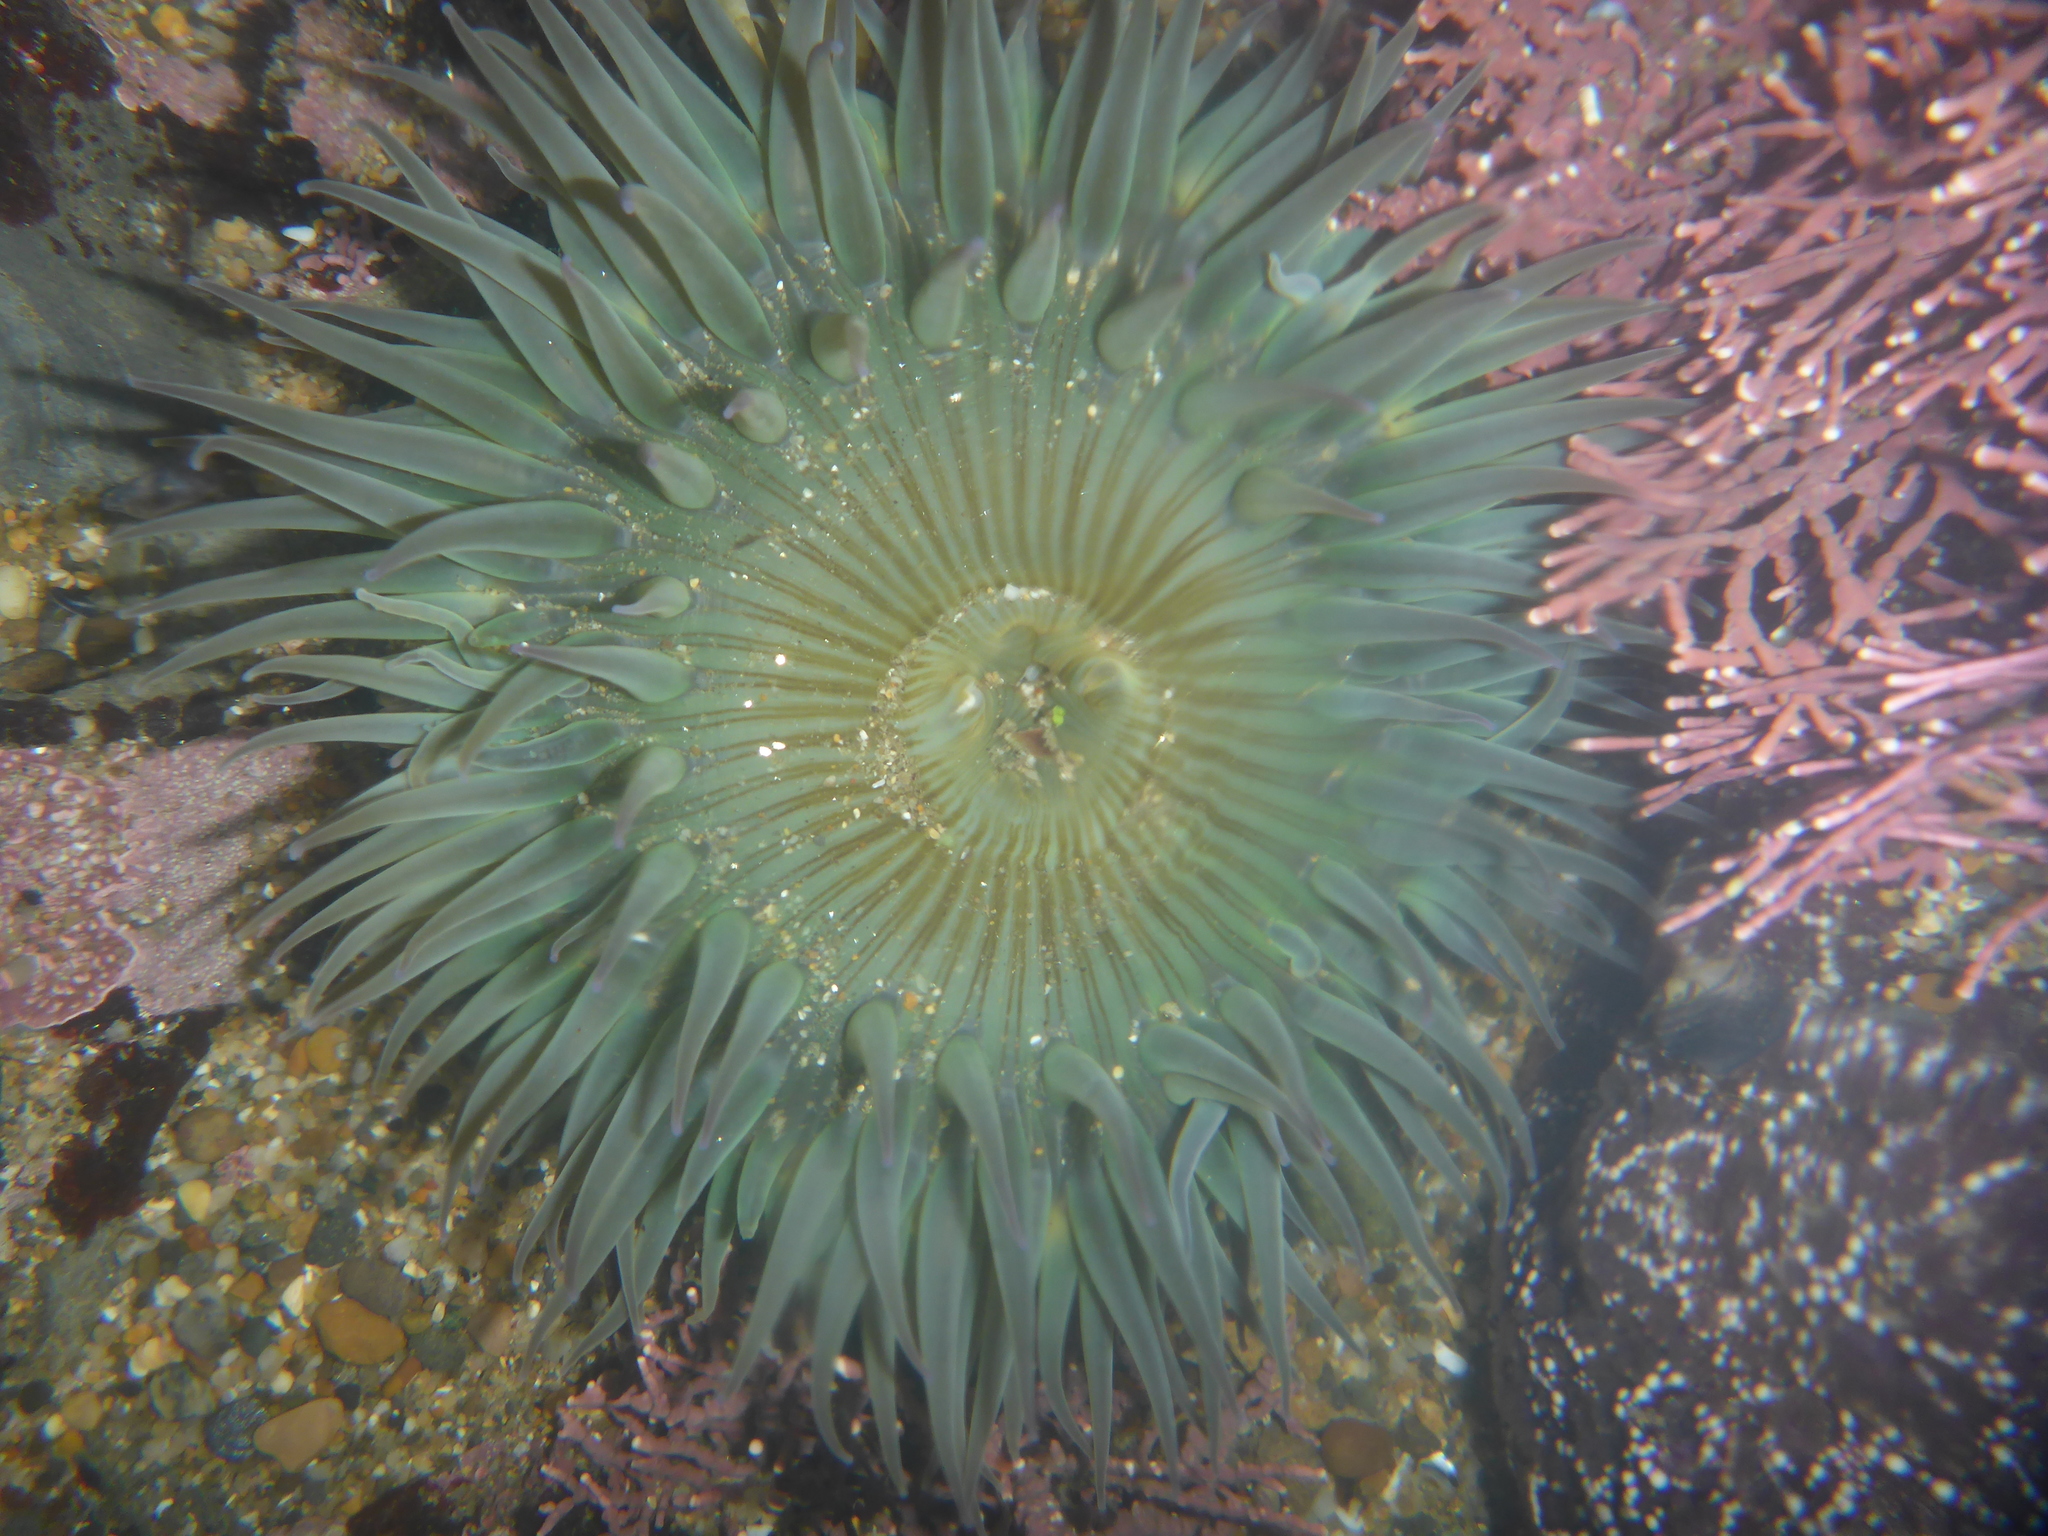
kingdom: Animalia
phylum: Cnidaria
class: Anthozoa
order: Actiniaria
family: Actiniidae
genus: Anthopleura
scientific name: Anthopleura sola
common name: Sun anemone
